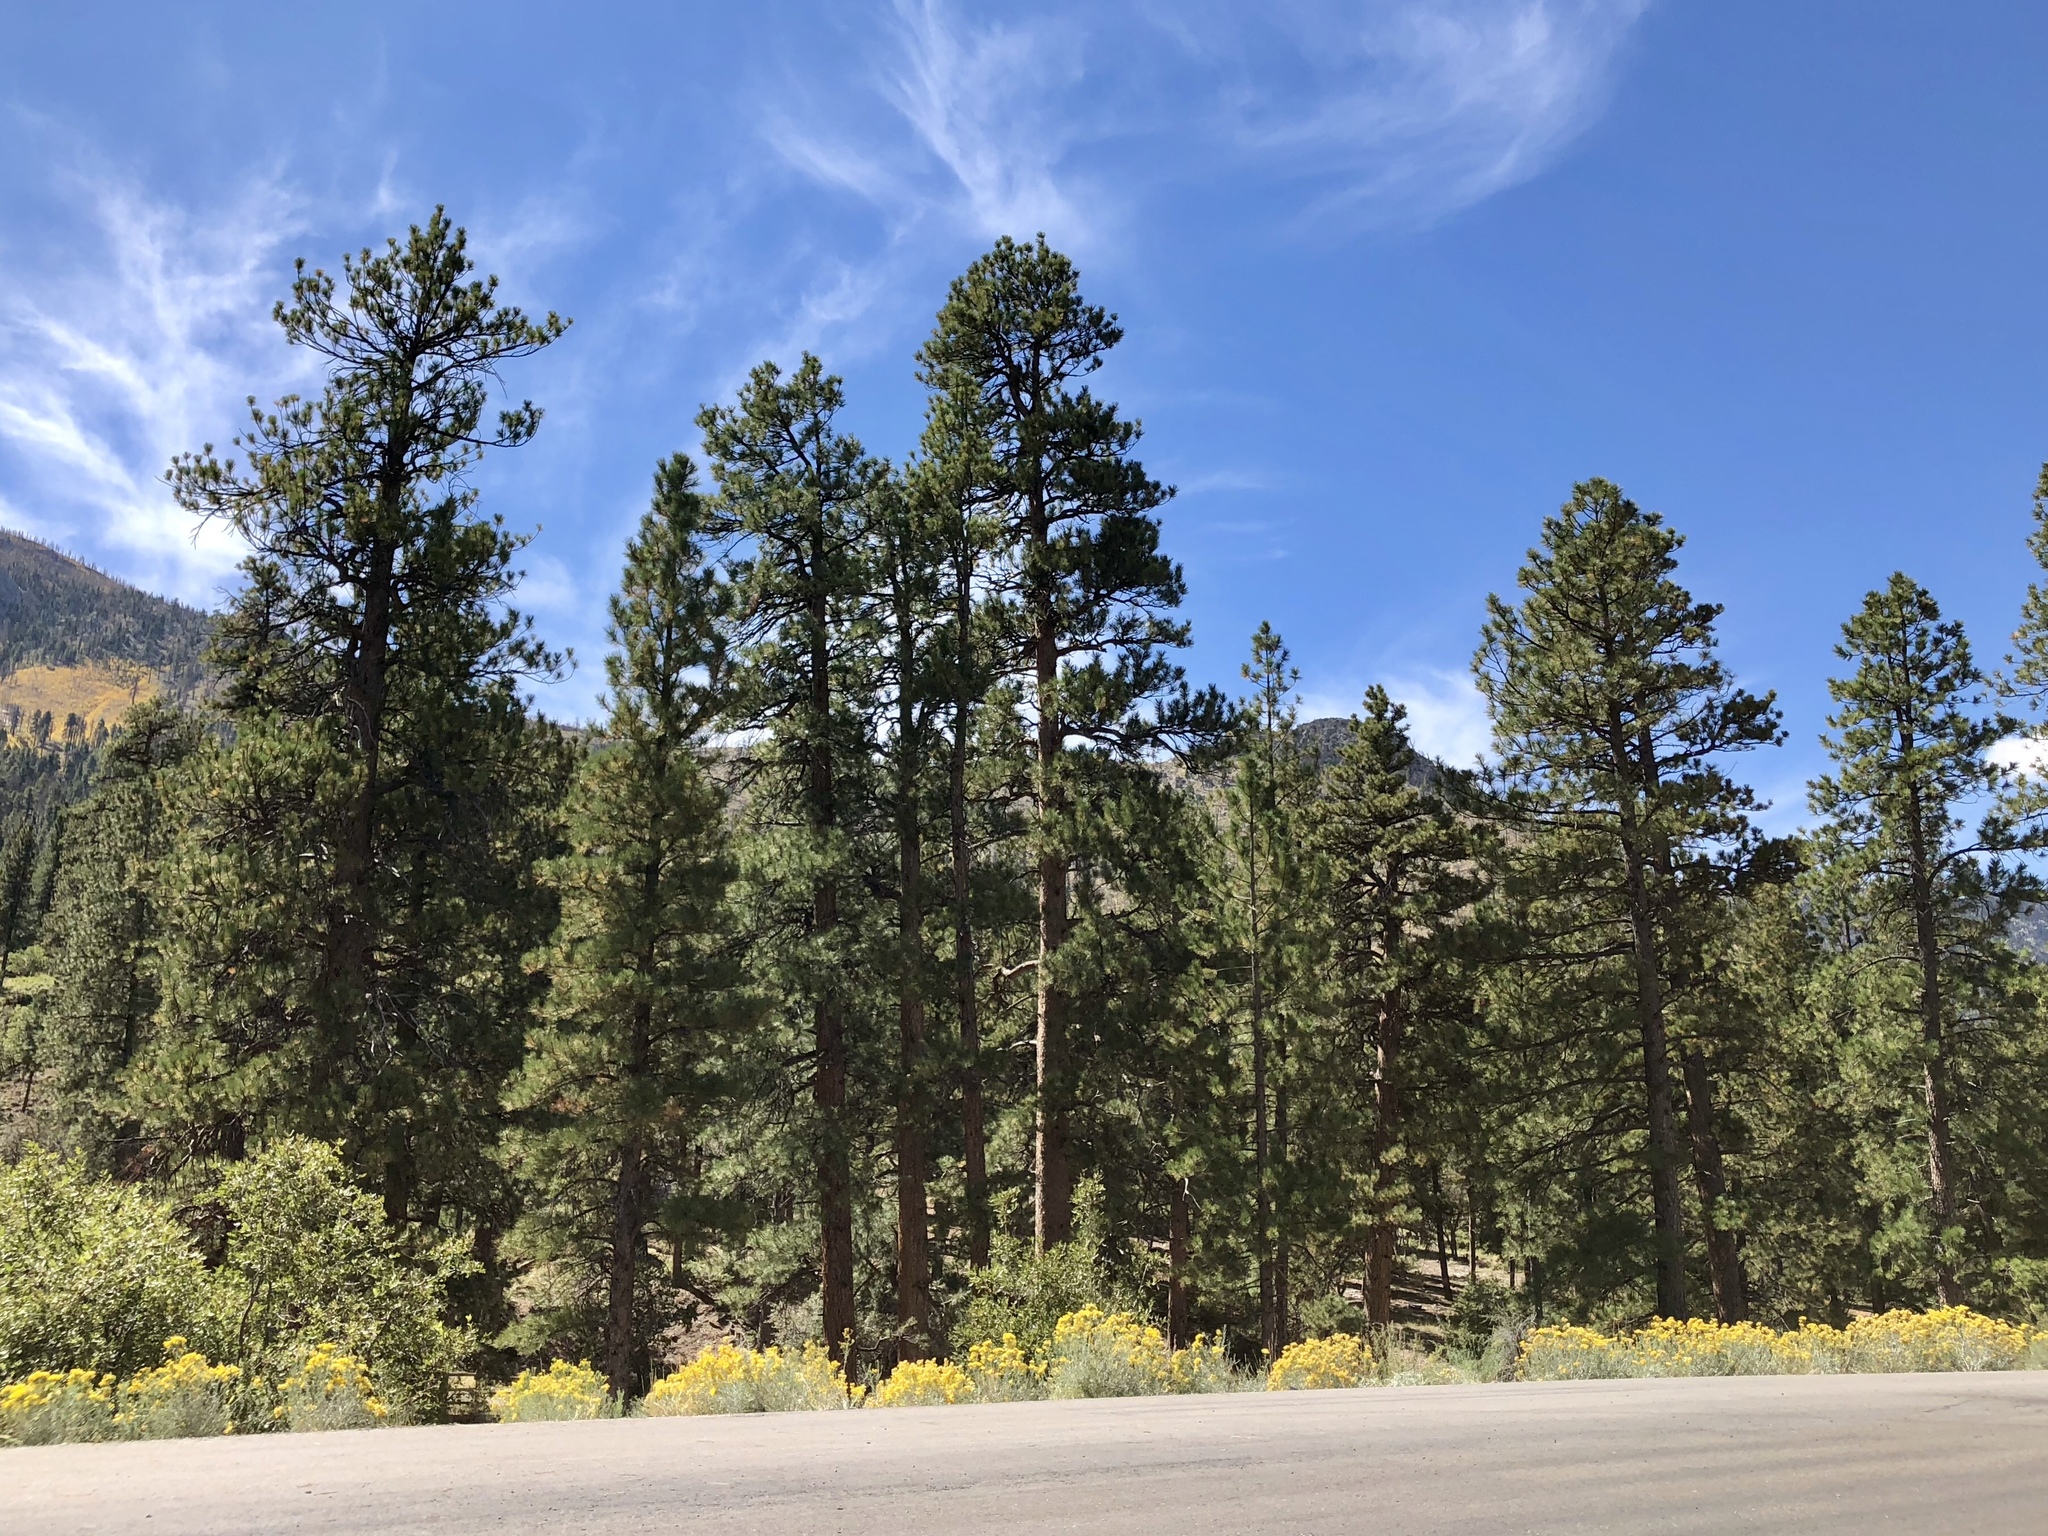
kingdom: Plantae
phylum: Tracheophyta
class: Pinopsida
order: Pinales
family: Pinaceae
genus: Pinus
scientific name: Pinus ponderosa
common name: Western yellow-pine
